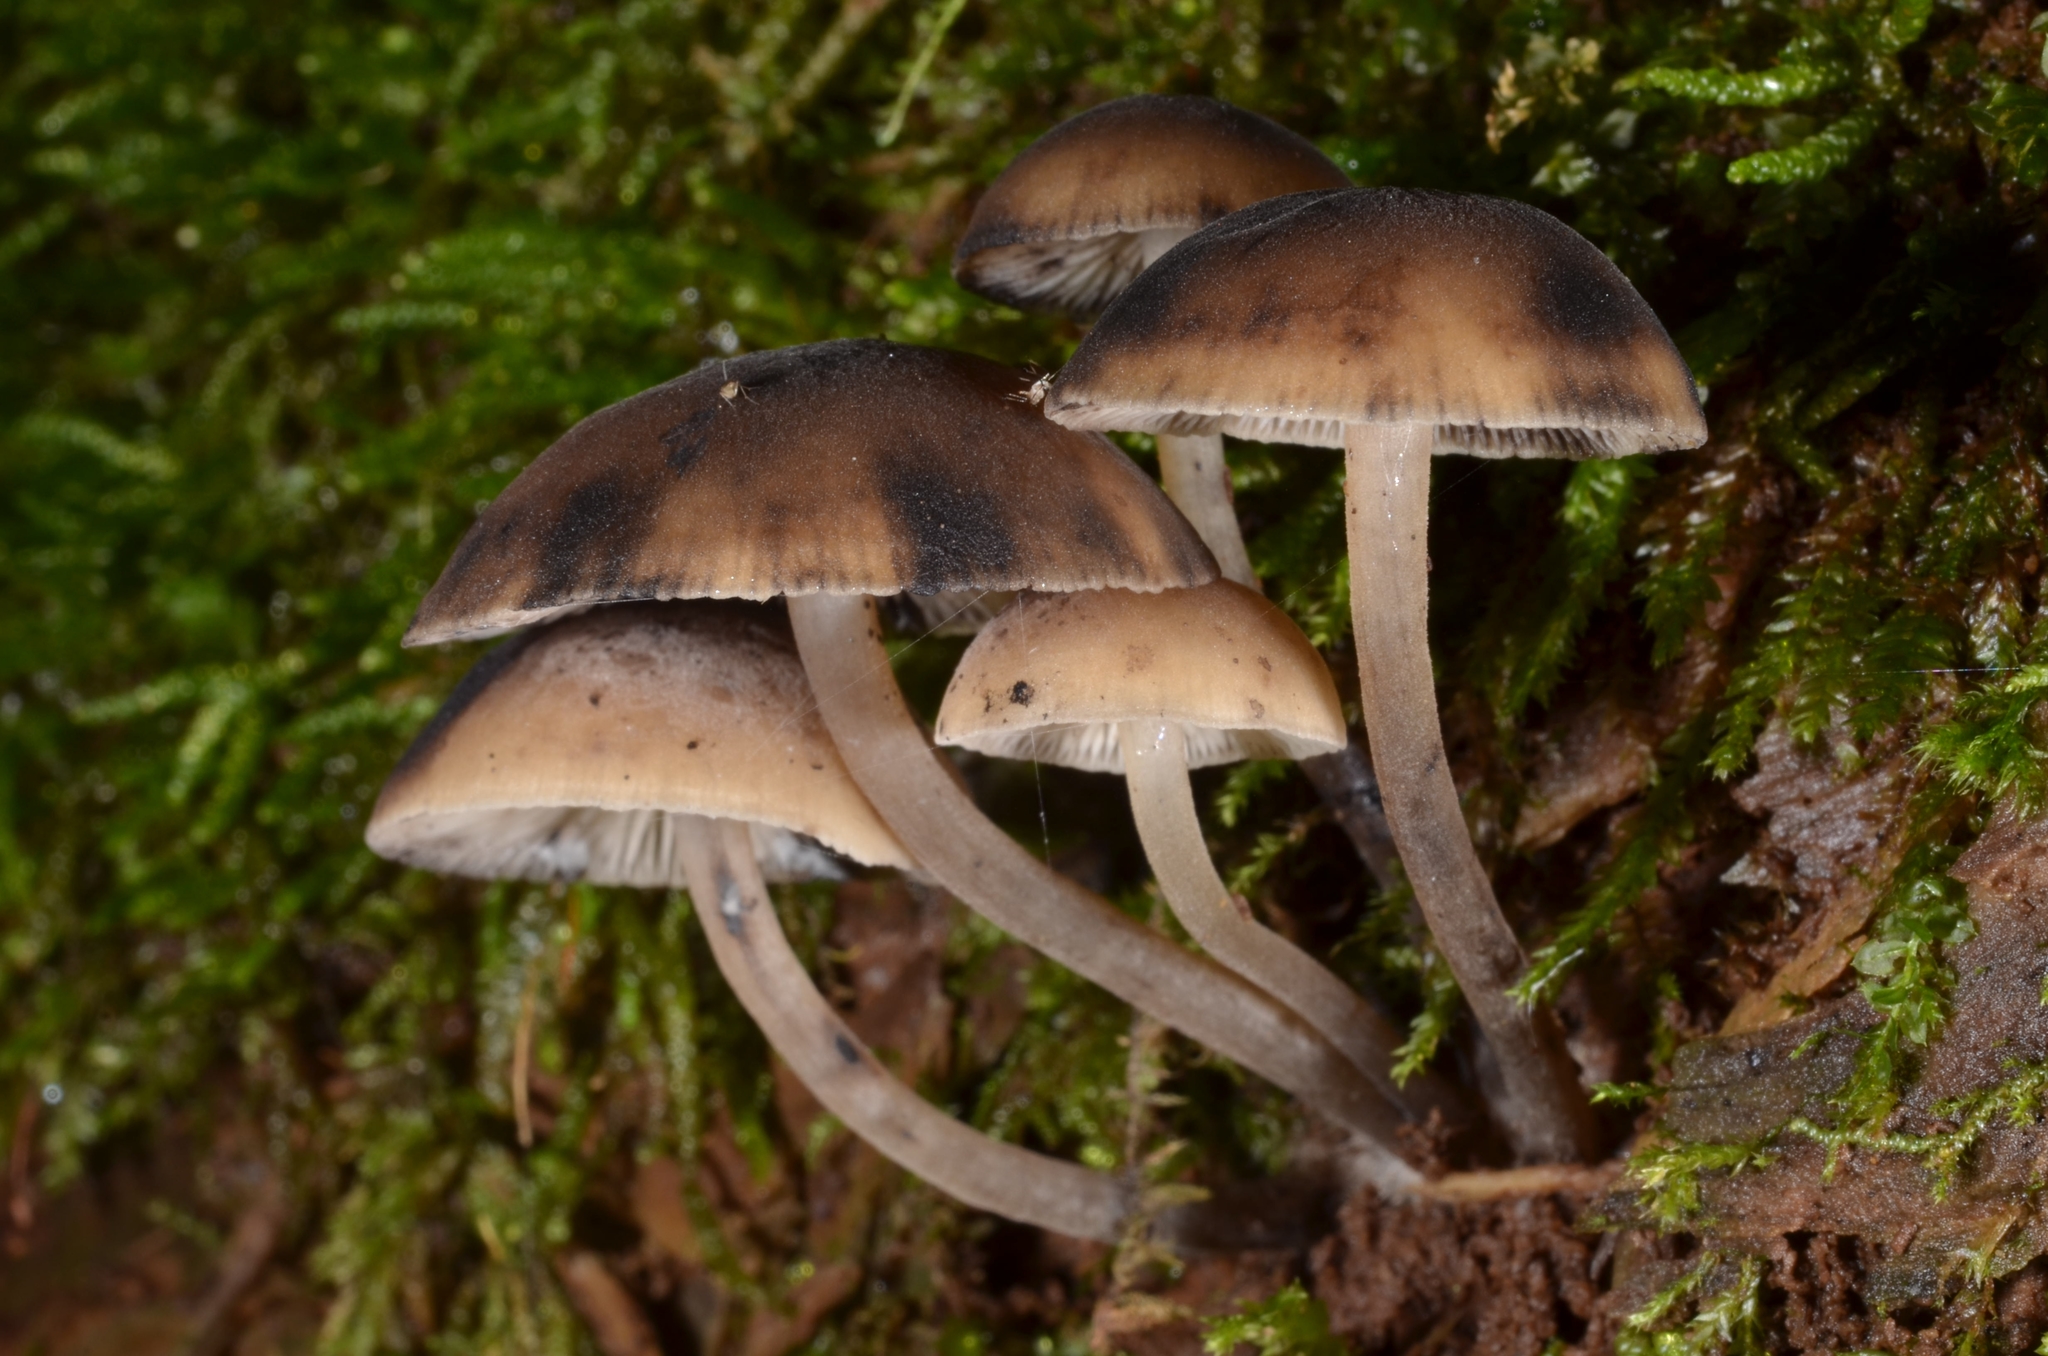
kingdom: Fungi
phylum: Basidiomycota
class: Agaricomycetes
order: Agaricales
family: Mycenaceae
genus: Hydropus
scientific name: Hydropus atramentosus
